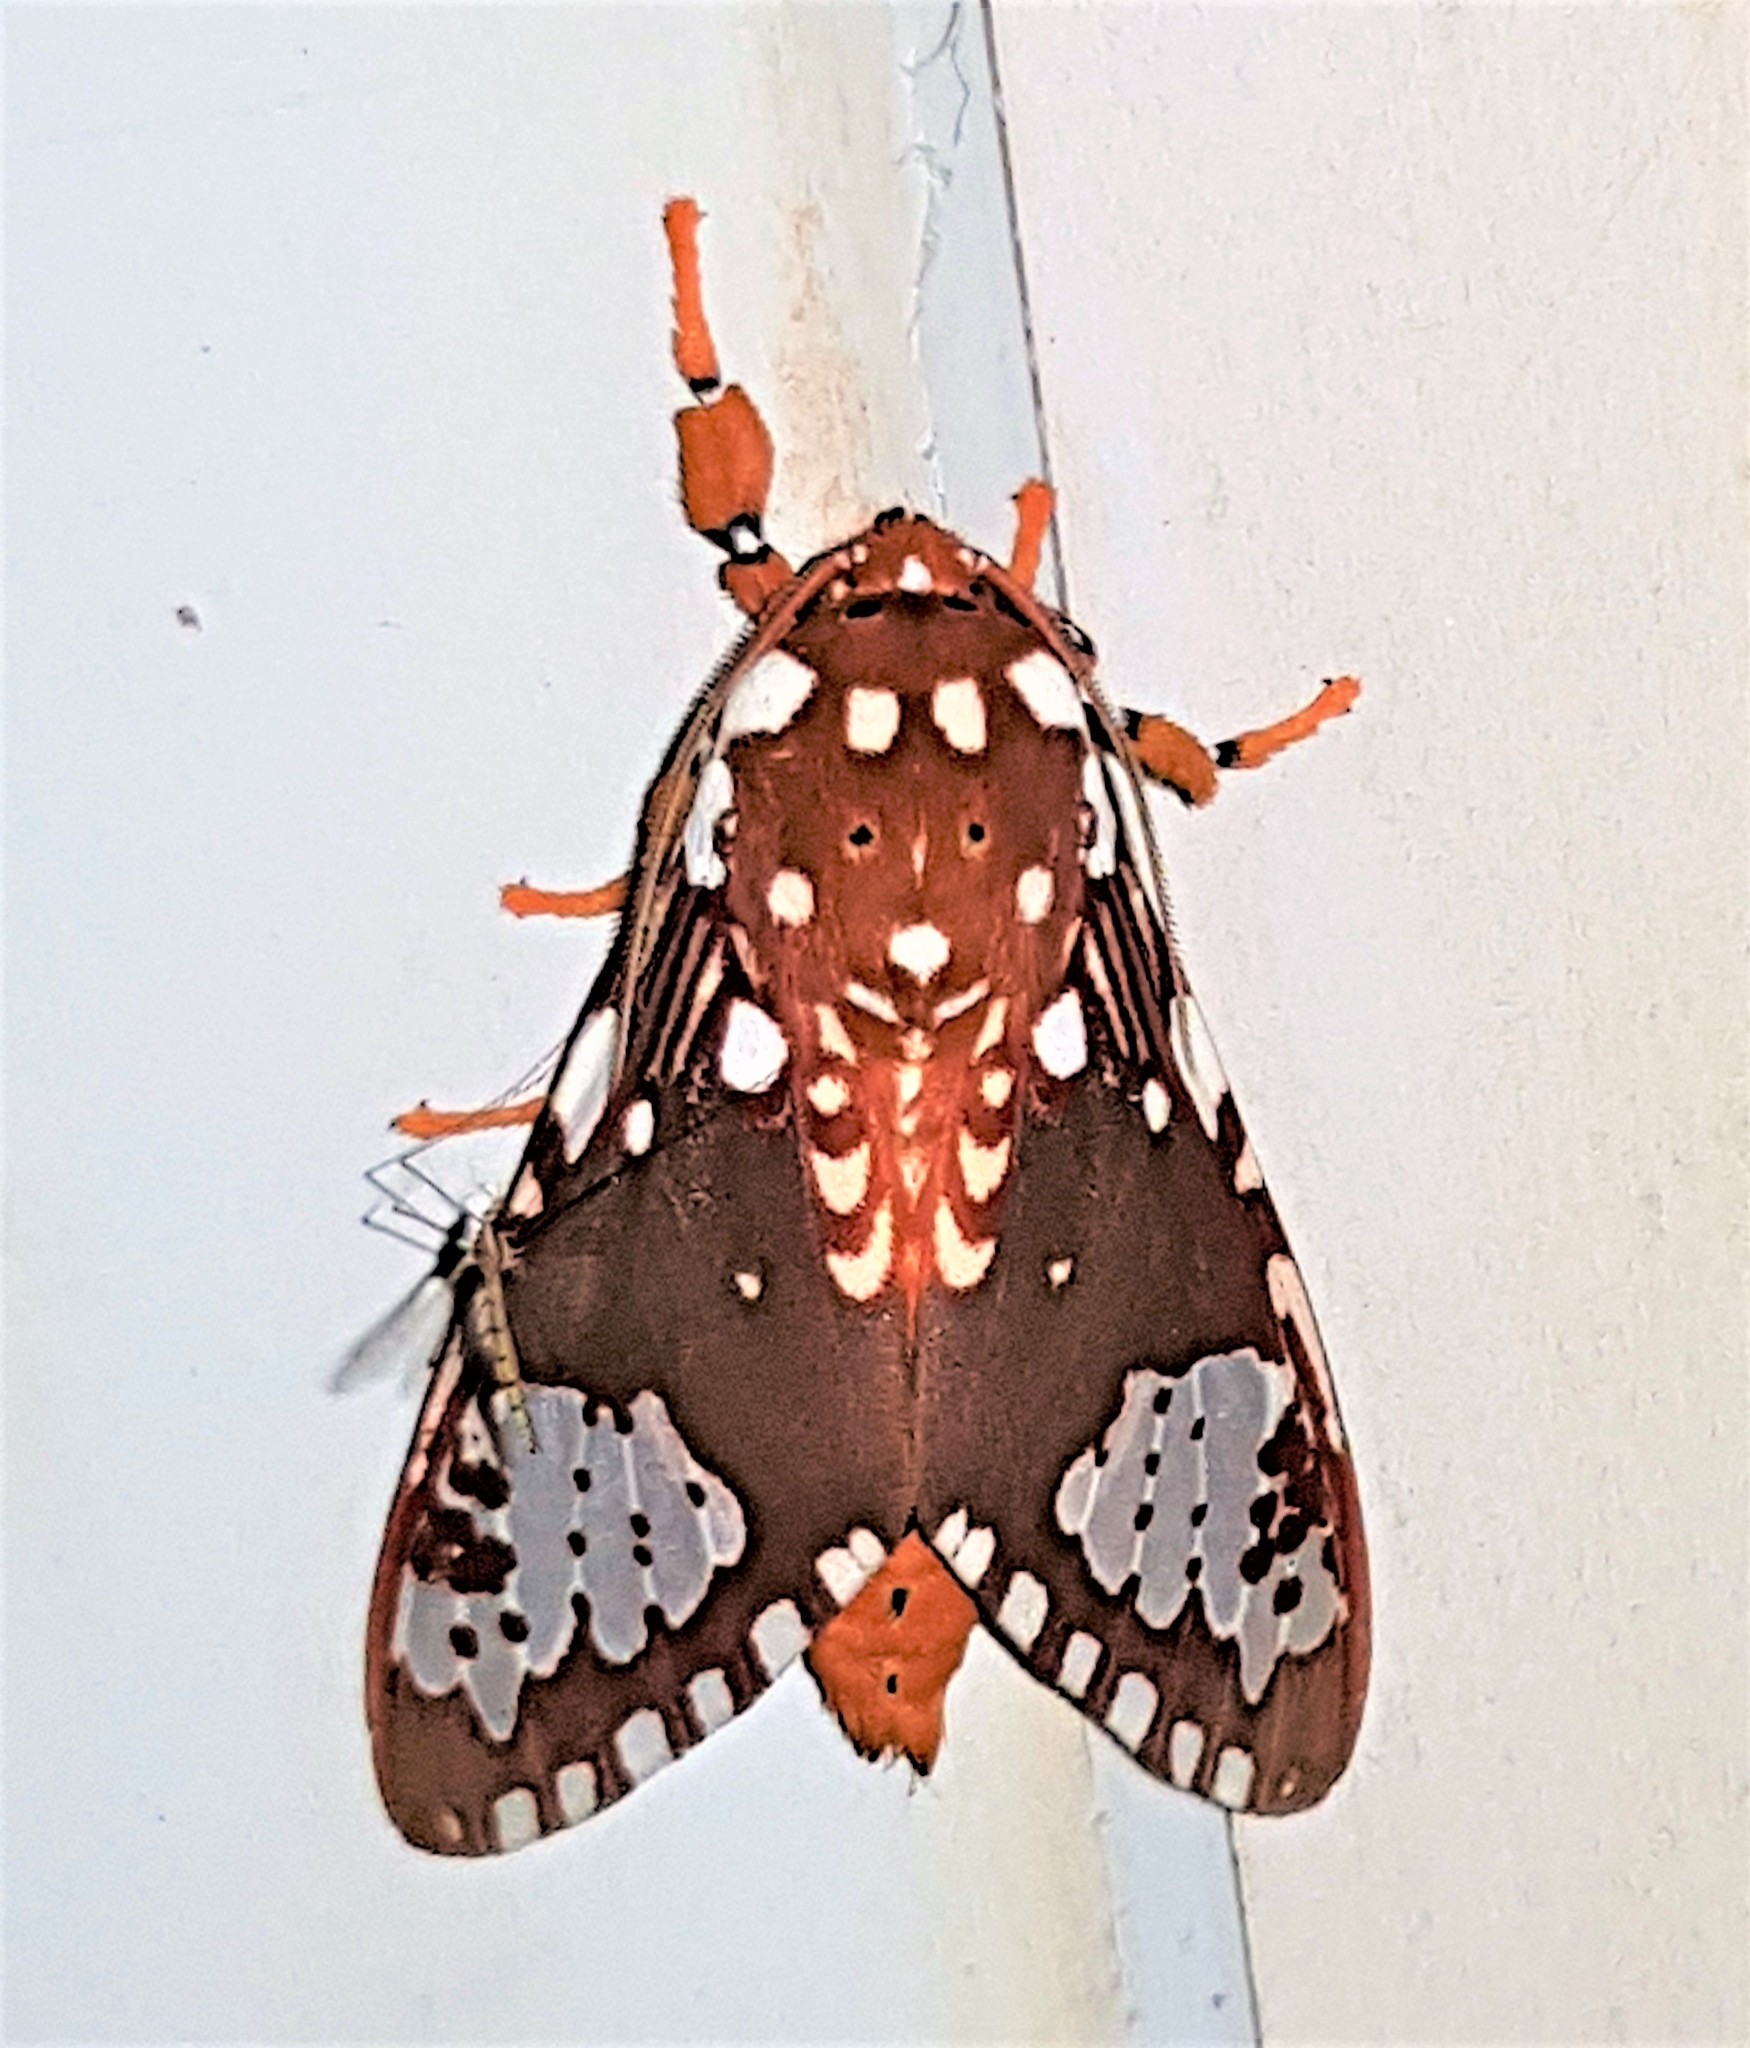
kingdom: Animalia
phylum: Arthropoda
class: Insecta
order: Lepidoptera
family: Erebidae
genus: Rhipha
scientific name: Rhipha flammans
